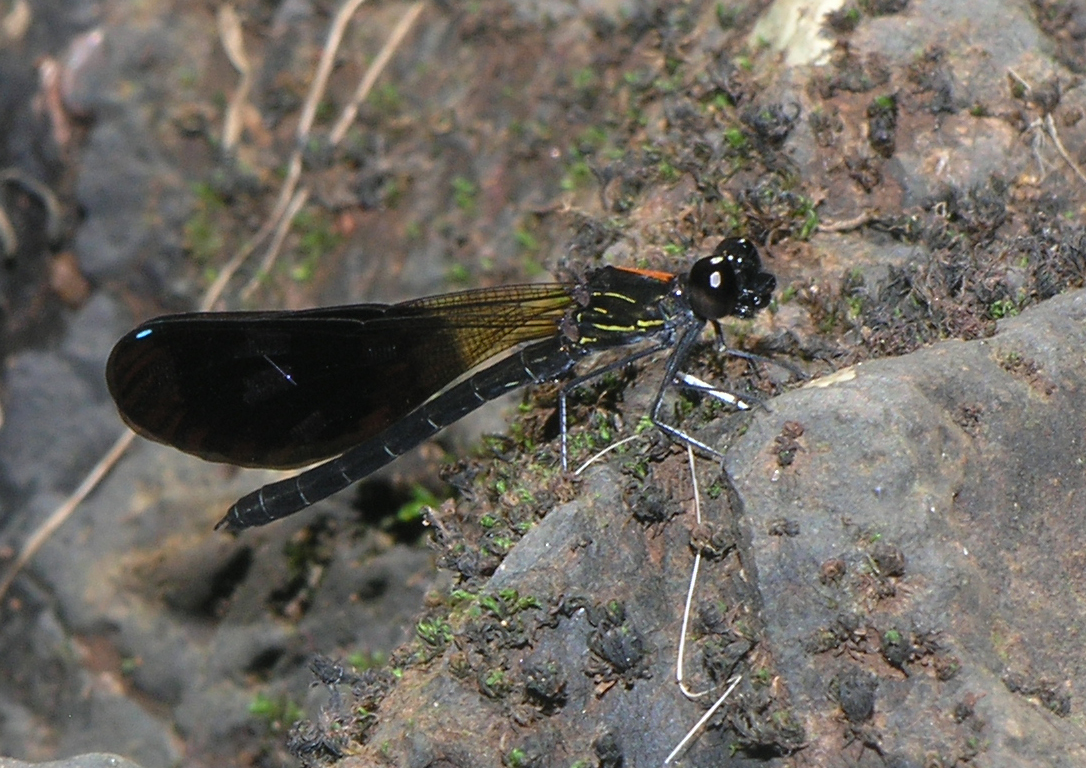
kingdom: Animalia
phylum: Arthropoda
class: Insecta
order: Odonata
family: Chlorocyphidae
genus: Aristocypha
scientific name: Aristocypha fulgipennis
